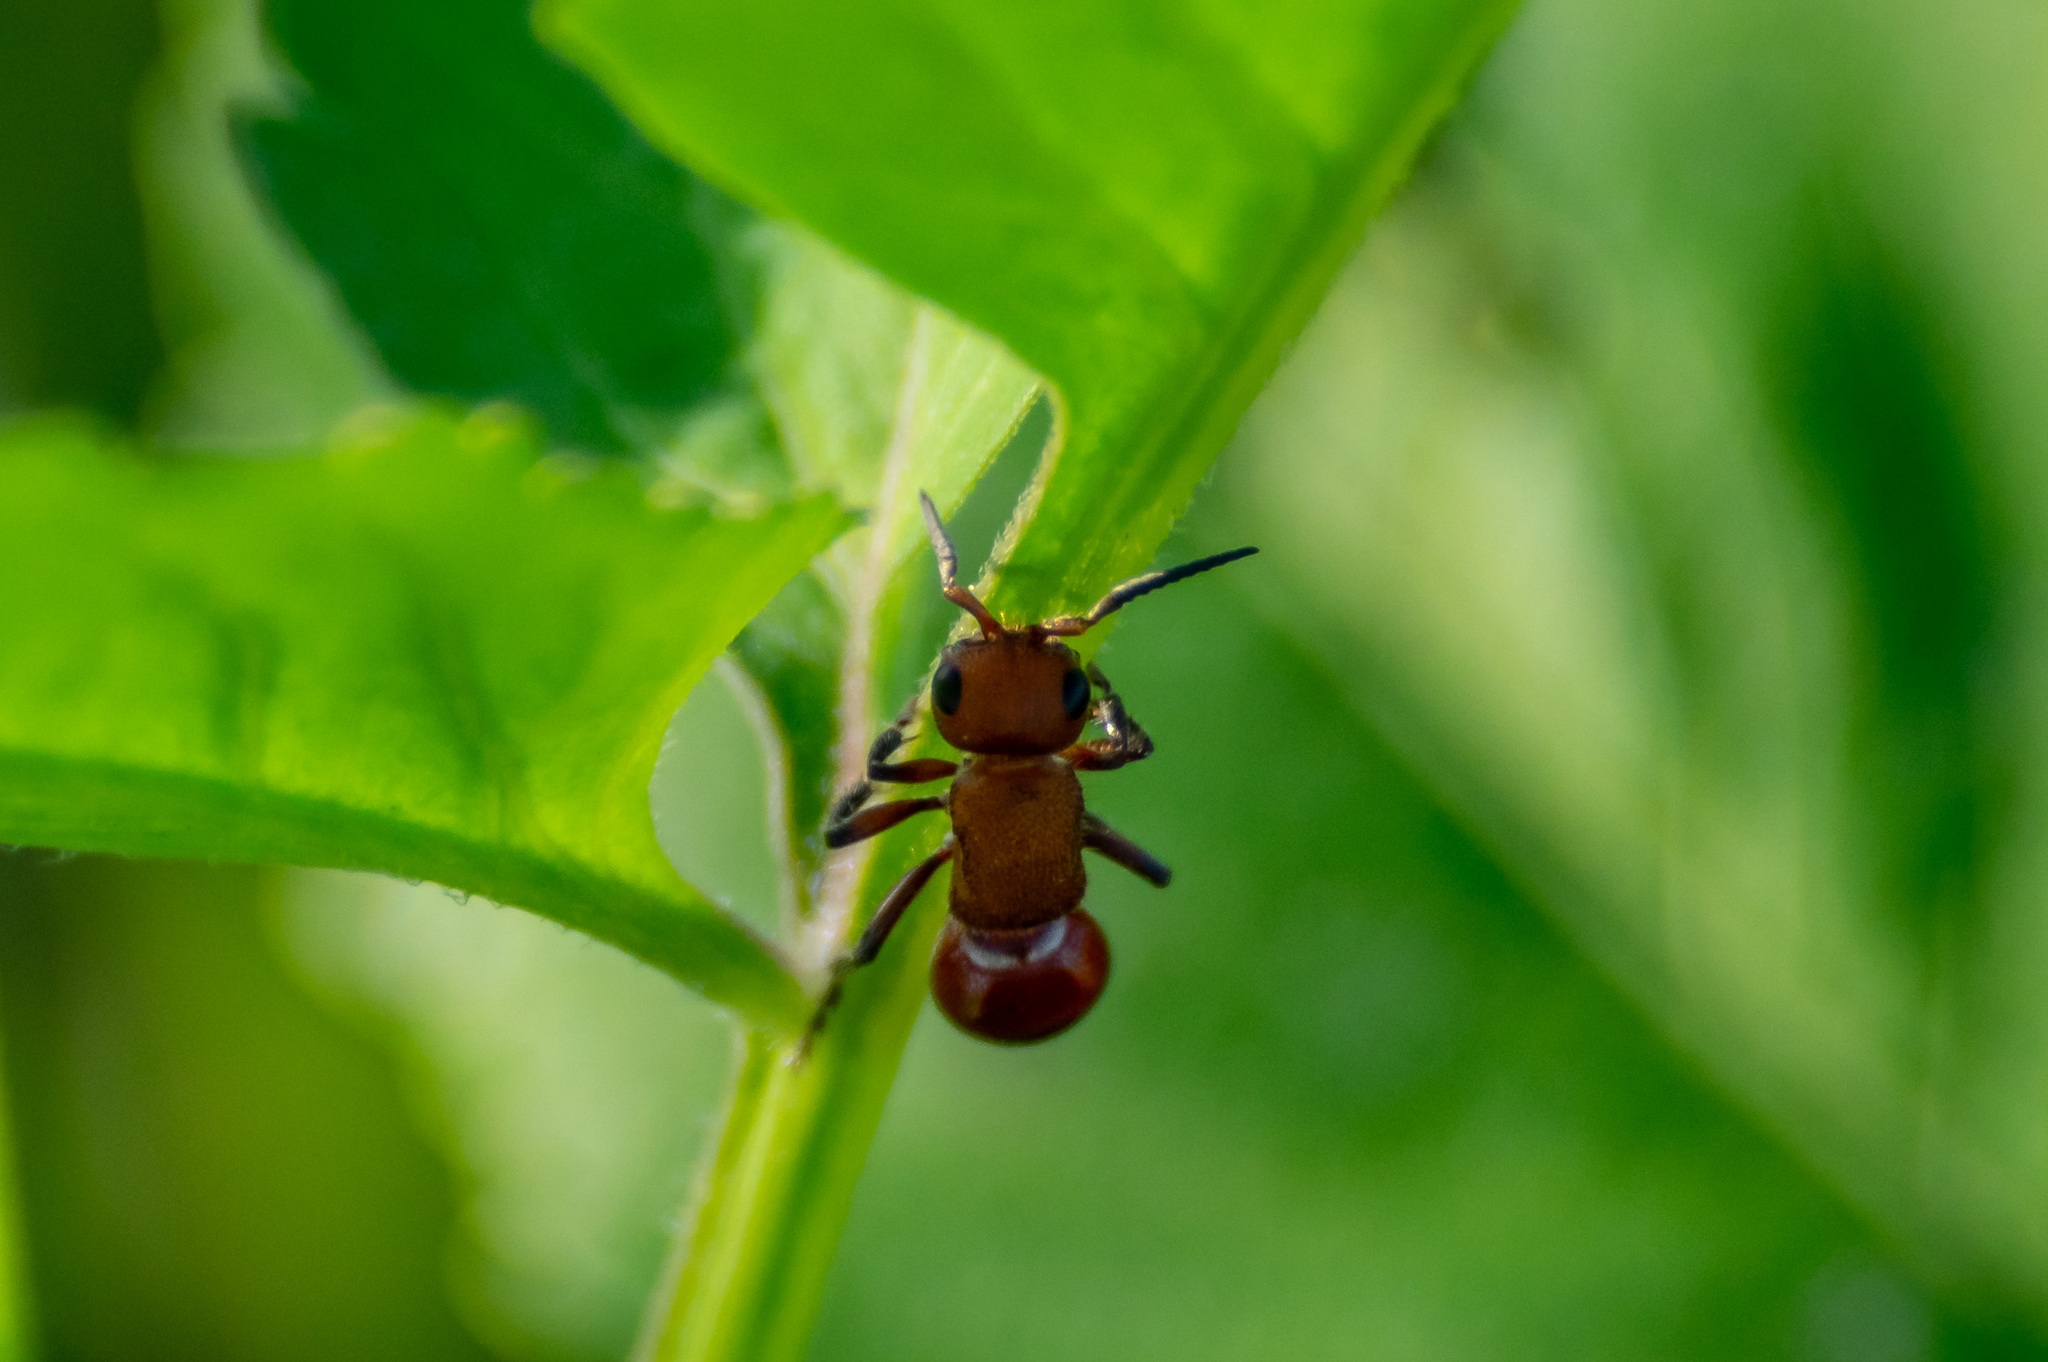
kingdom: Animalia
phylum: Arthropoda
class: Insecta
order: Hymenoptera
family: Mutillidae
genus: Timulla
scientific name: Timulla
